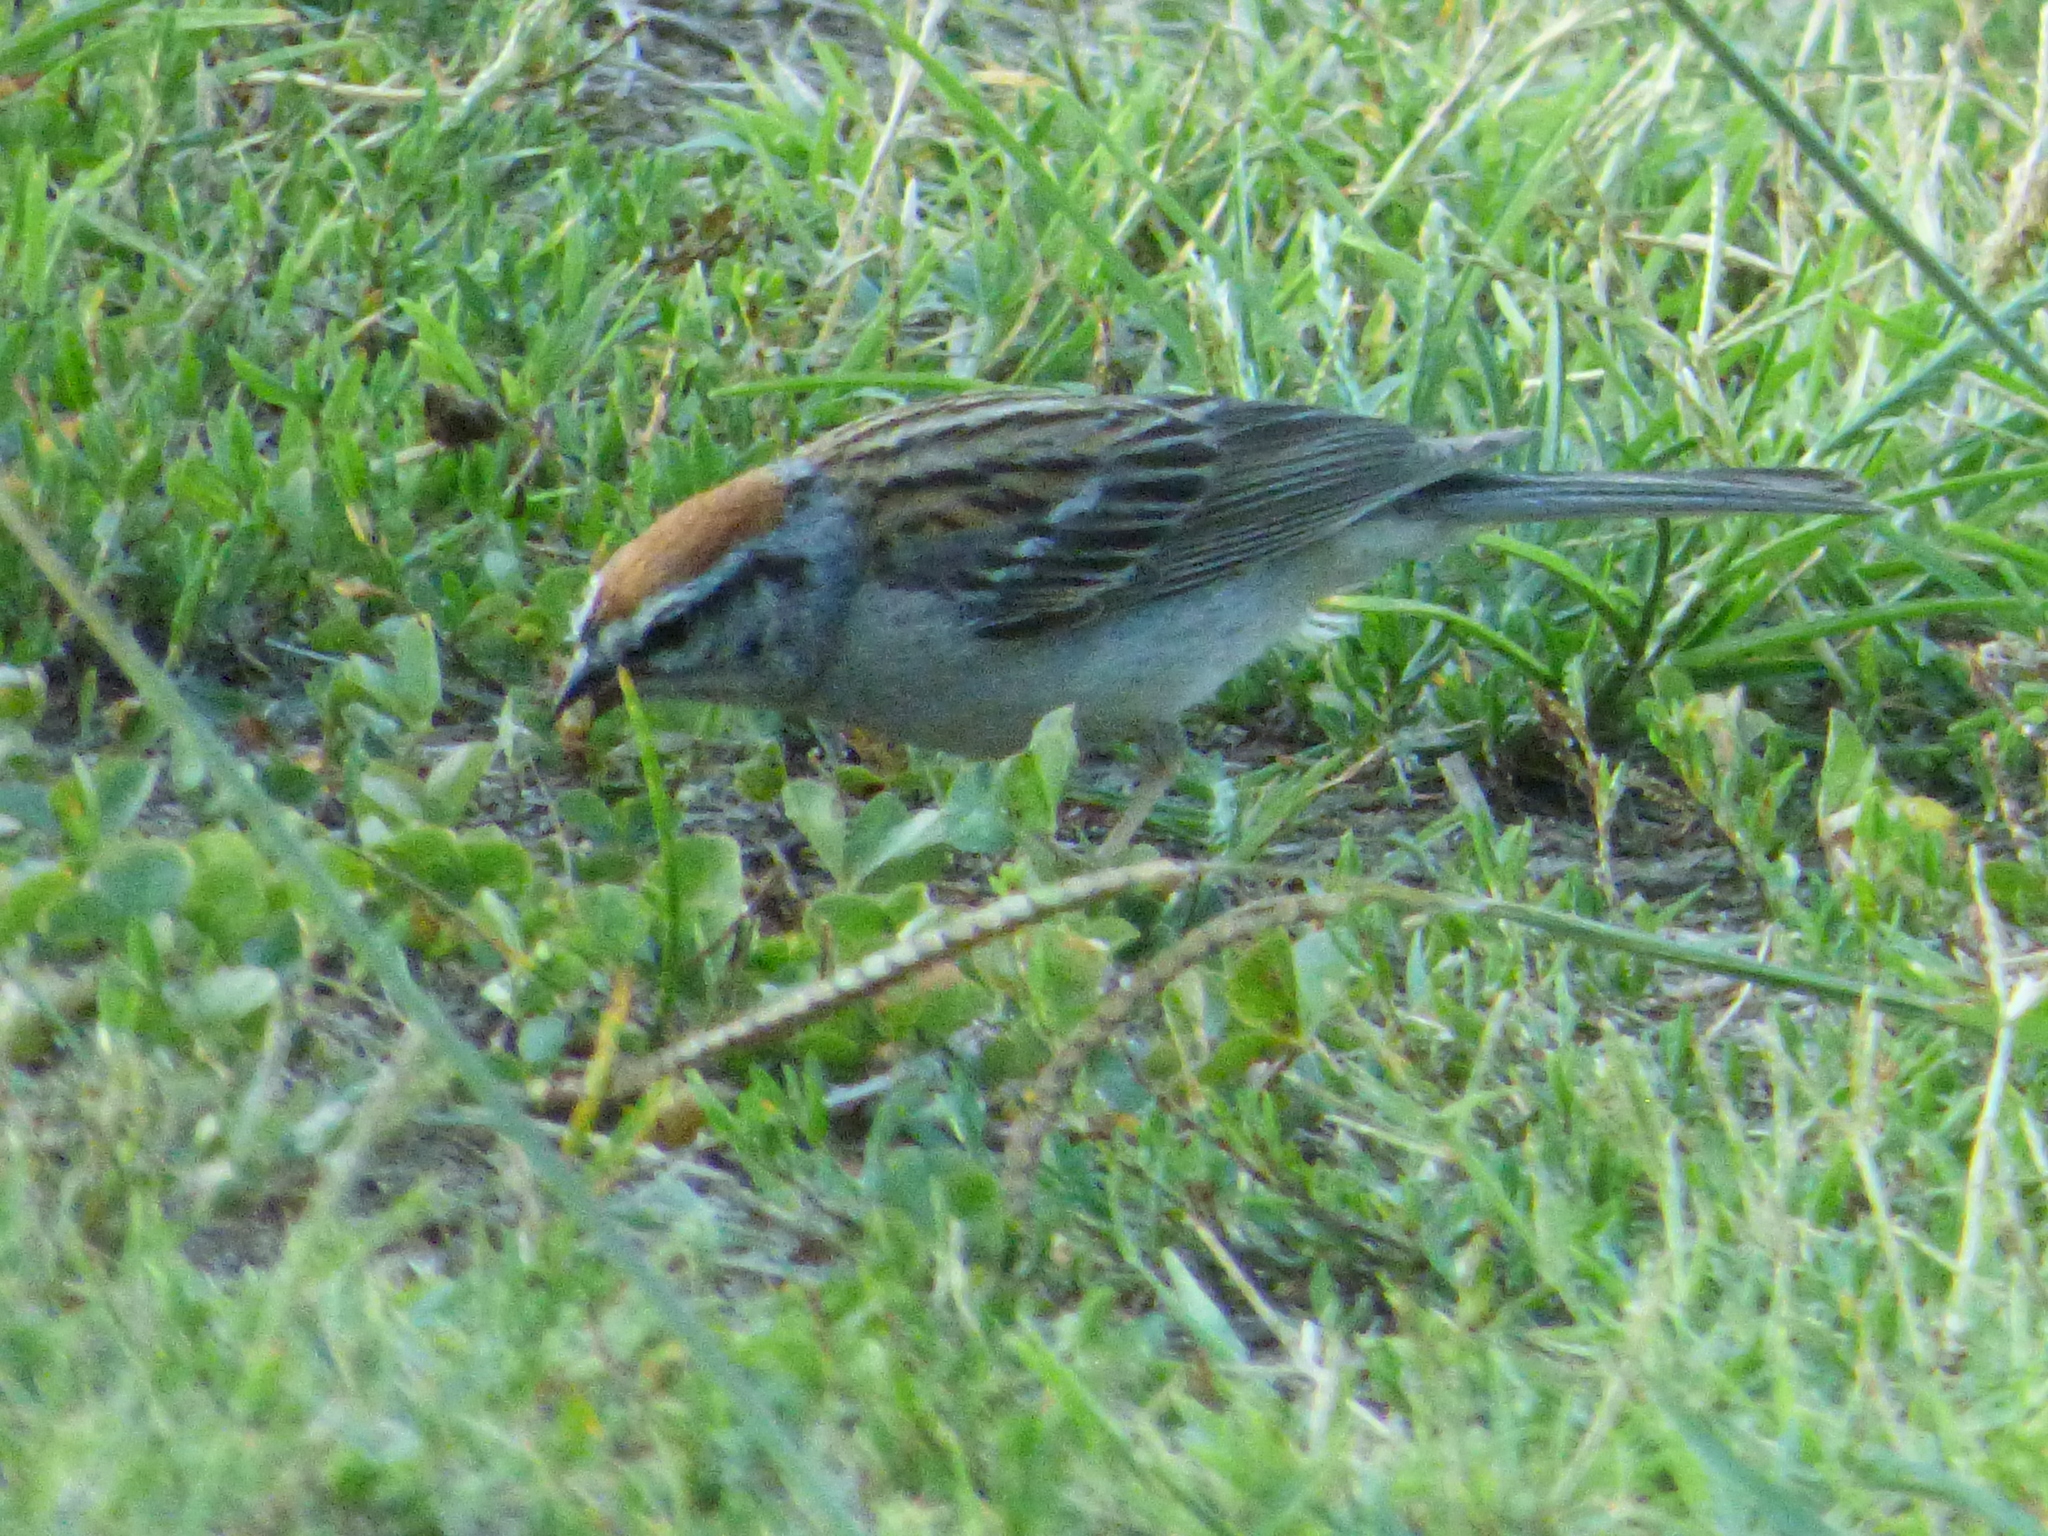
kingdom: Animalia
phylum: Chordata
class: Aves
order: Passeriformes
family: Passerellidae
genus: Spizella
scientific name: Spizella passerina
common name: Chipping sparrow
